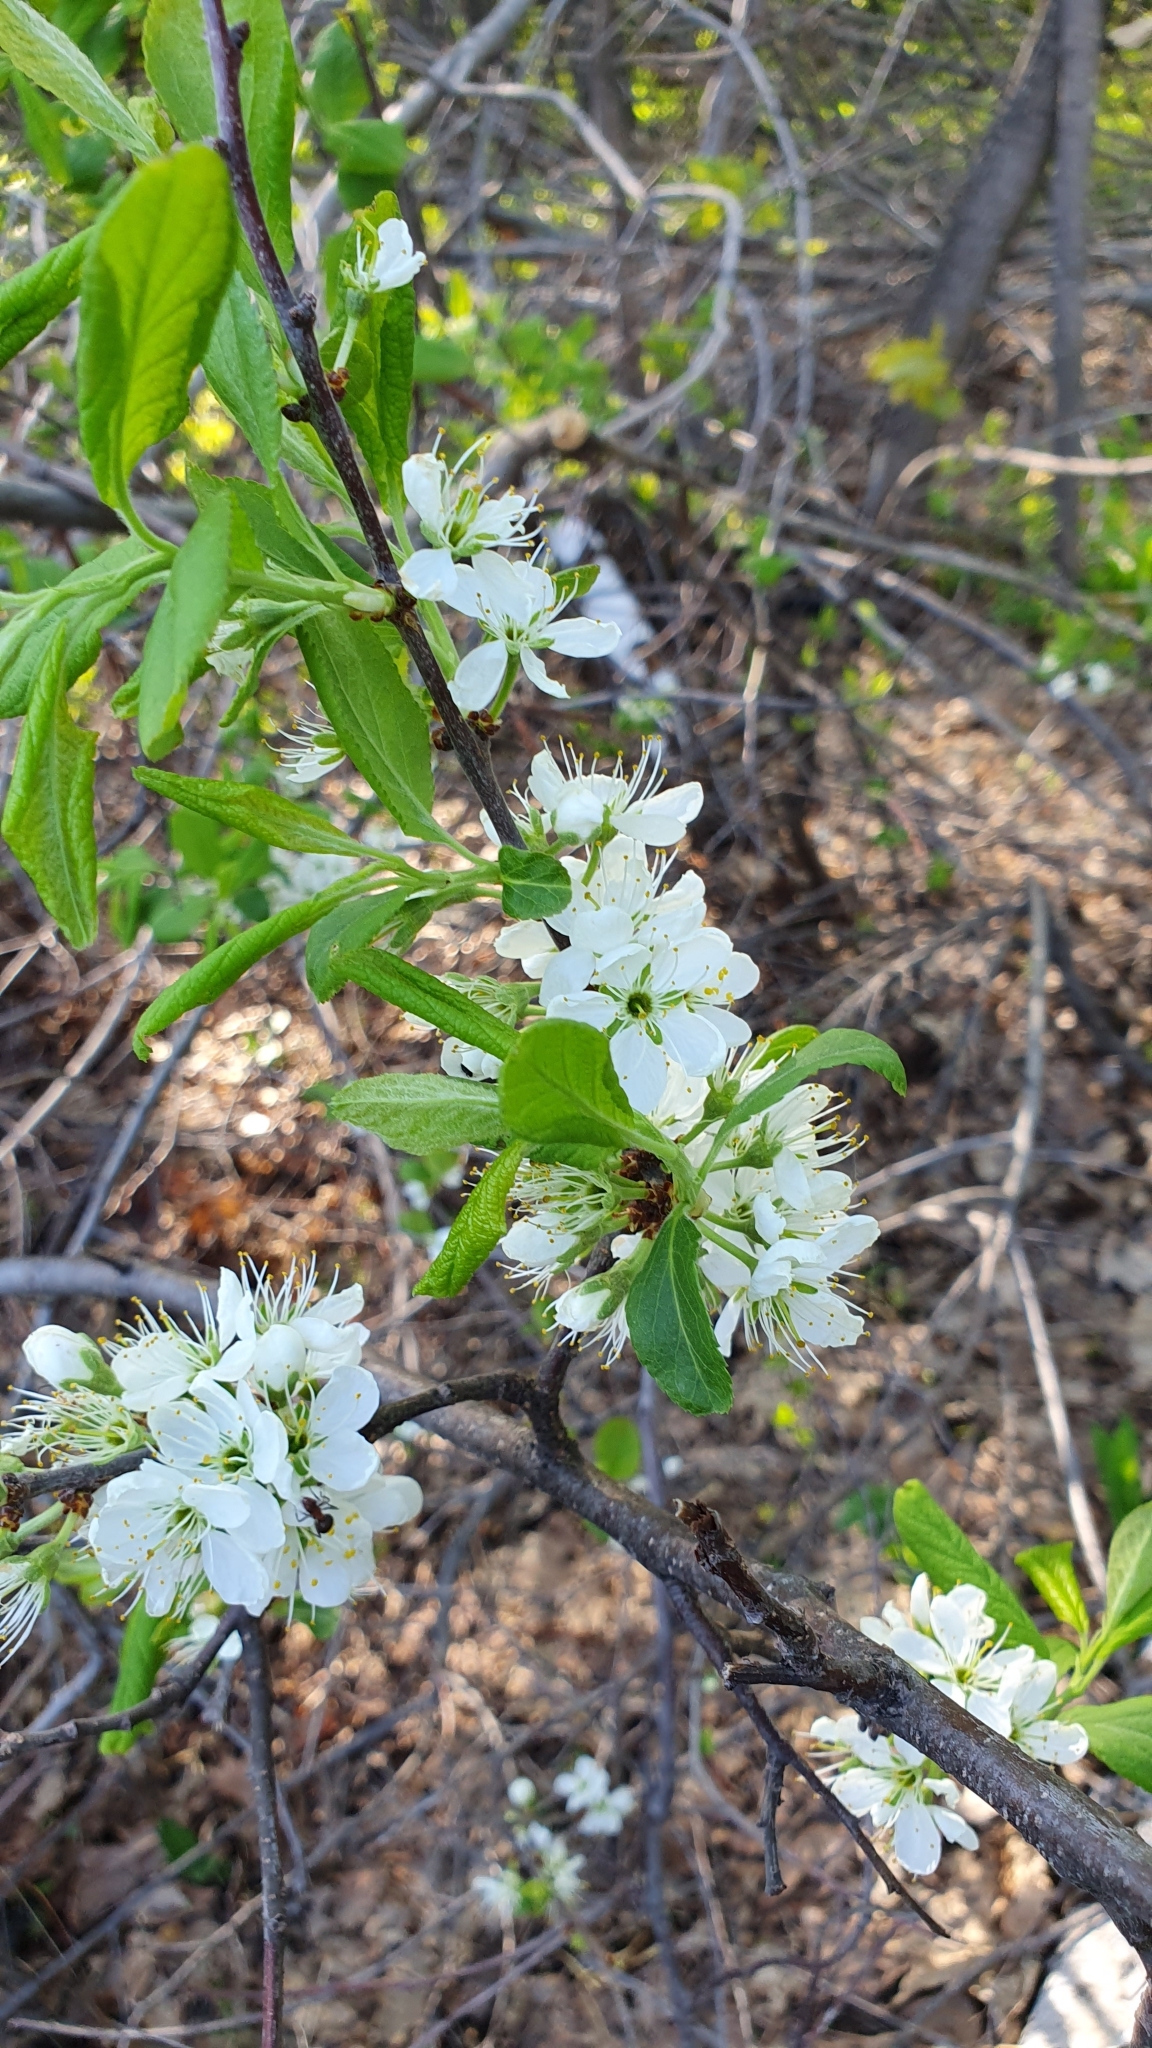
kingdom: Plantae
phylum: Tracheophyta
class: Magnoliopsida
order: Rosales
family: Rosaceae
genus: Prunus
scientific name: Prunus spinosa
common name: Blackthorn
